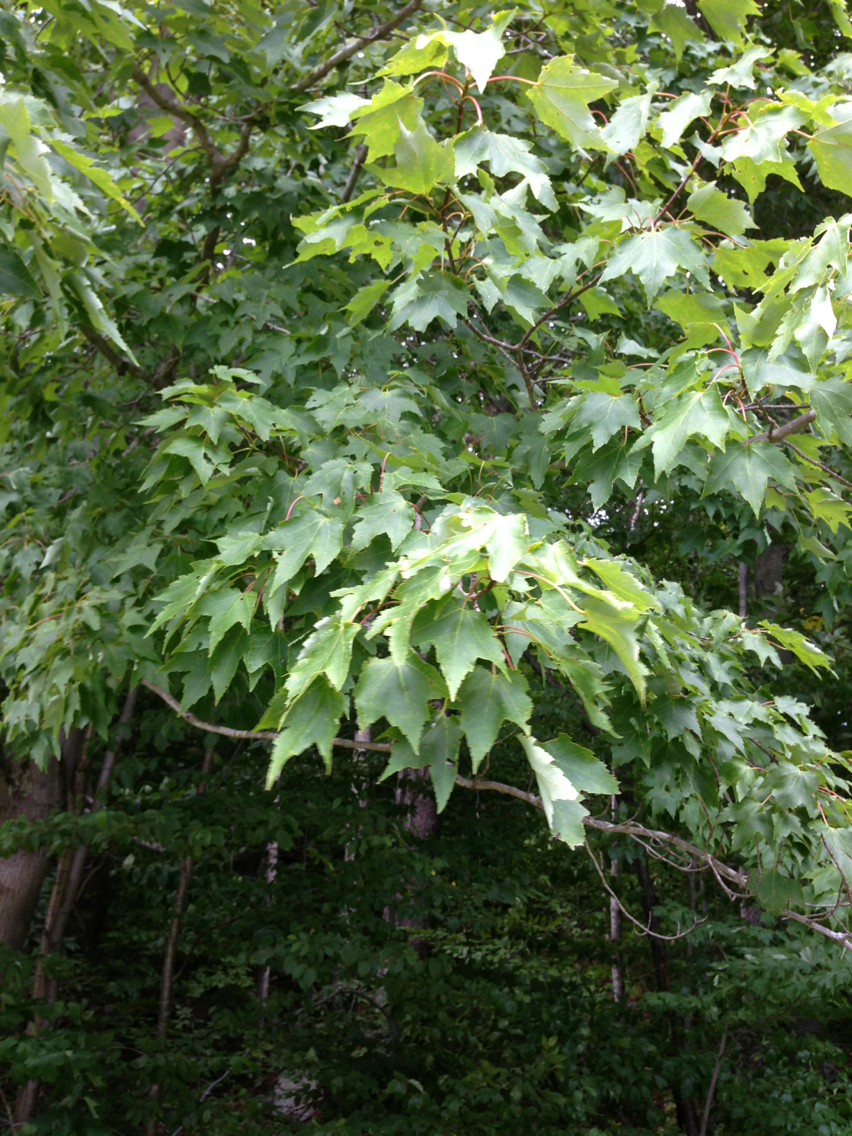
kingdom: Plantae
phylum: Tracheophyta
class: Magnoliopsida
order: Sapindales
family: Sapindaceae
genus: Acer
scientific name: Acer rubrum
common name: Red maple
